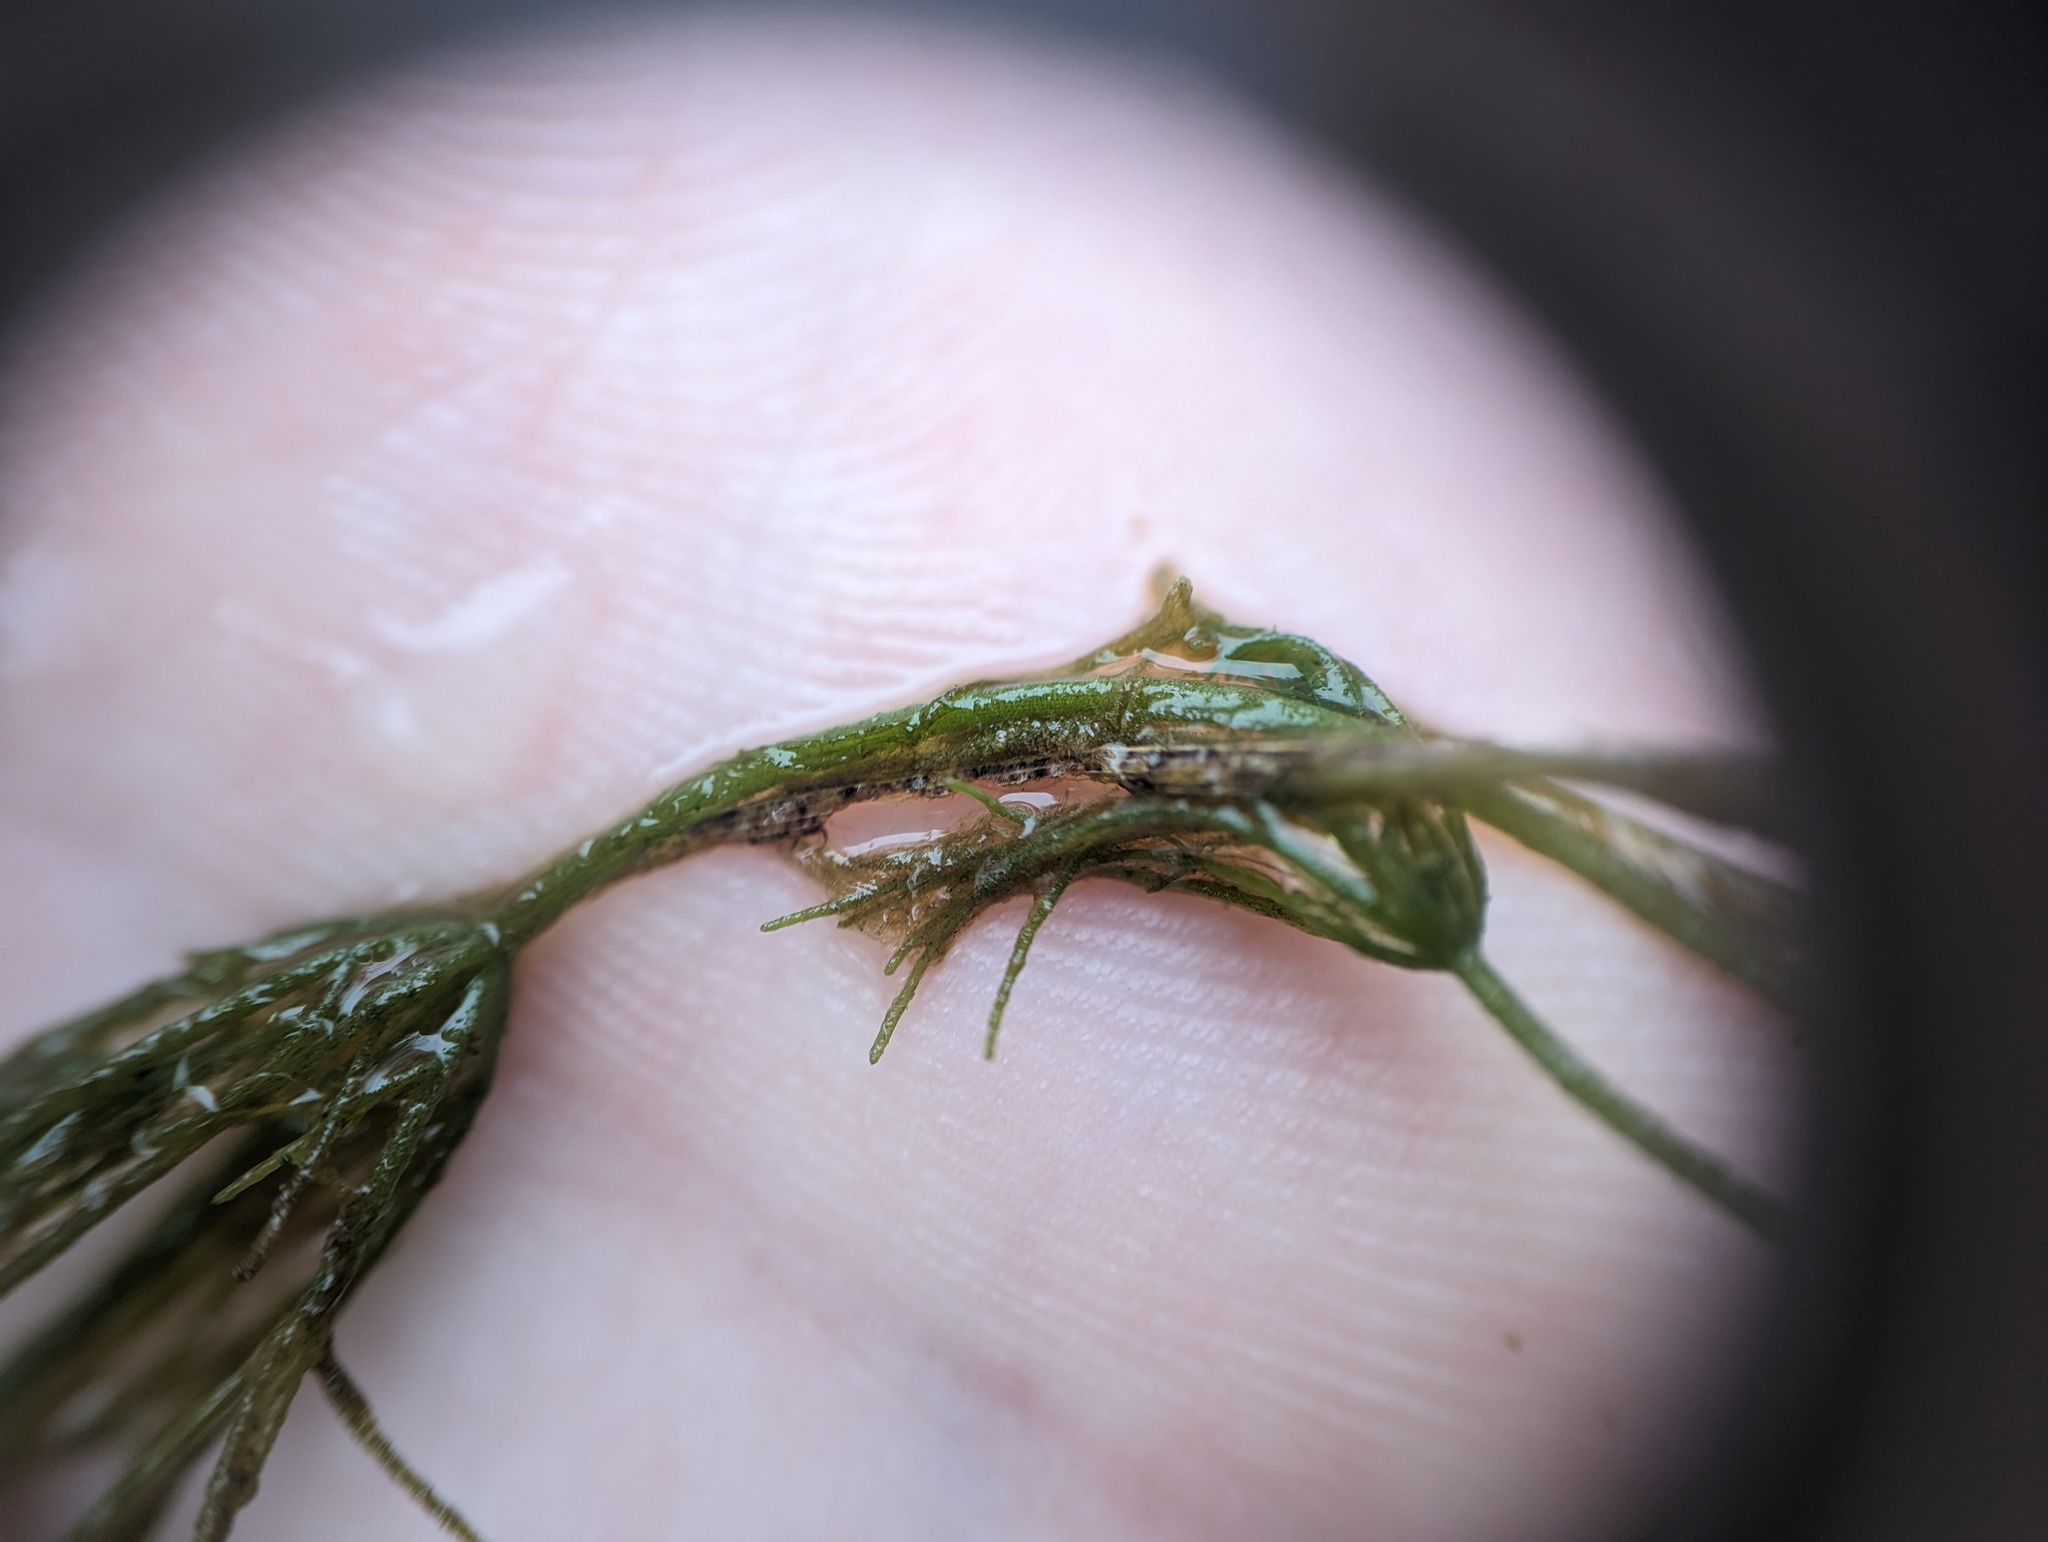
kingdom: Plantae
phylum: Charophyta
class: Charophyceae
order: Charales
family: Characeae
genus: Chara
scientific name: Chara vulgaris
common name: Common stonewort
